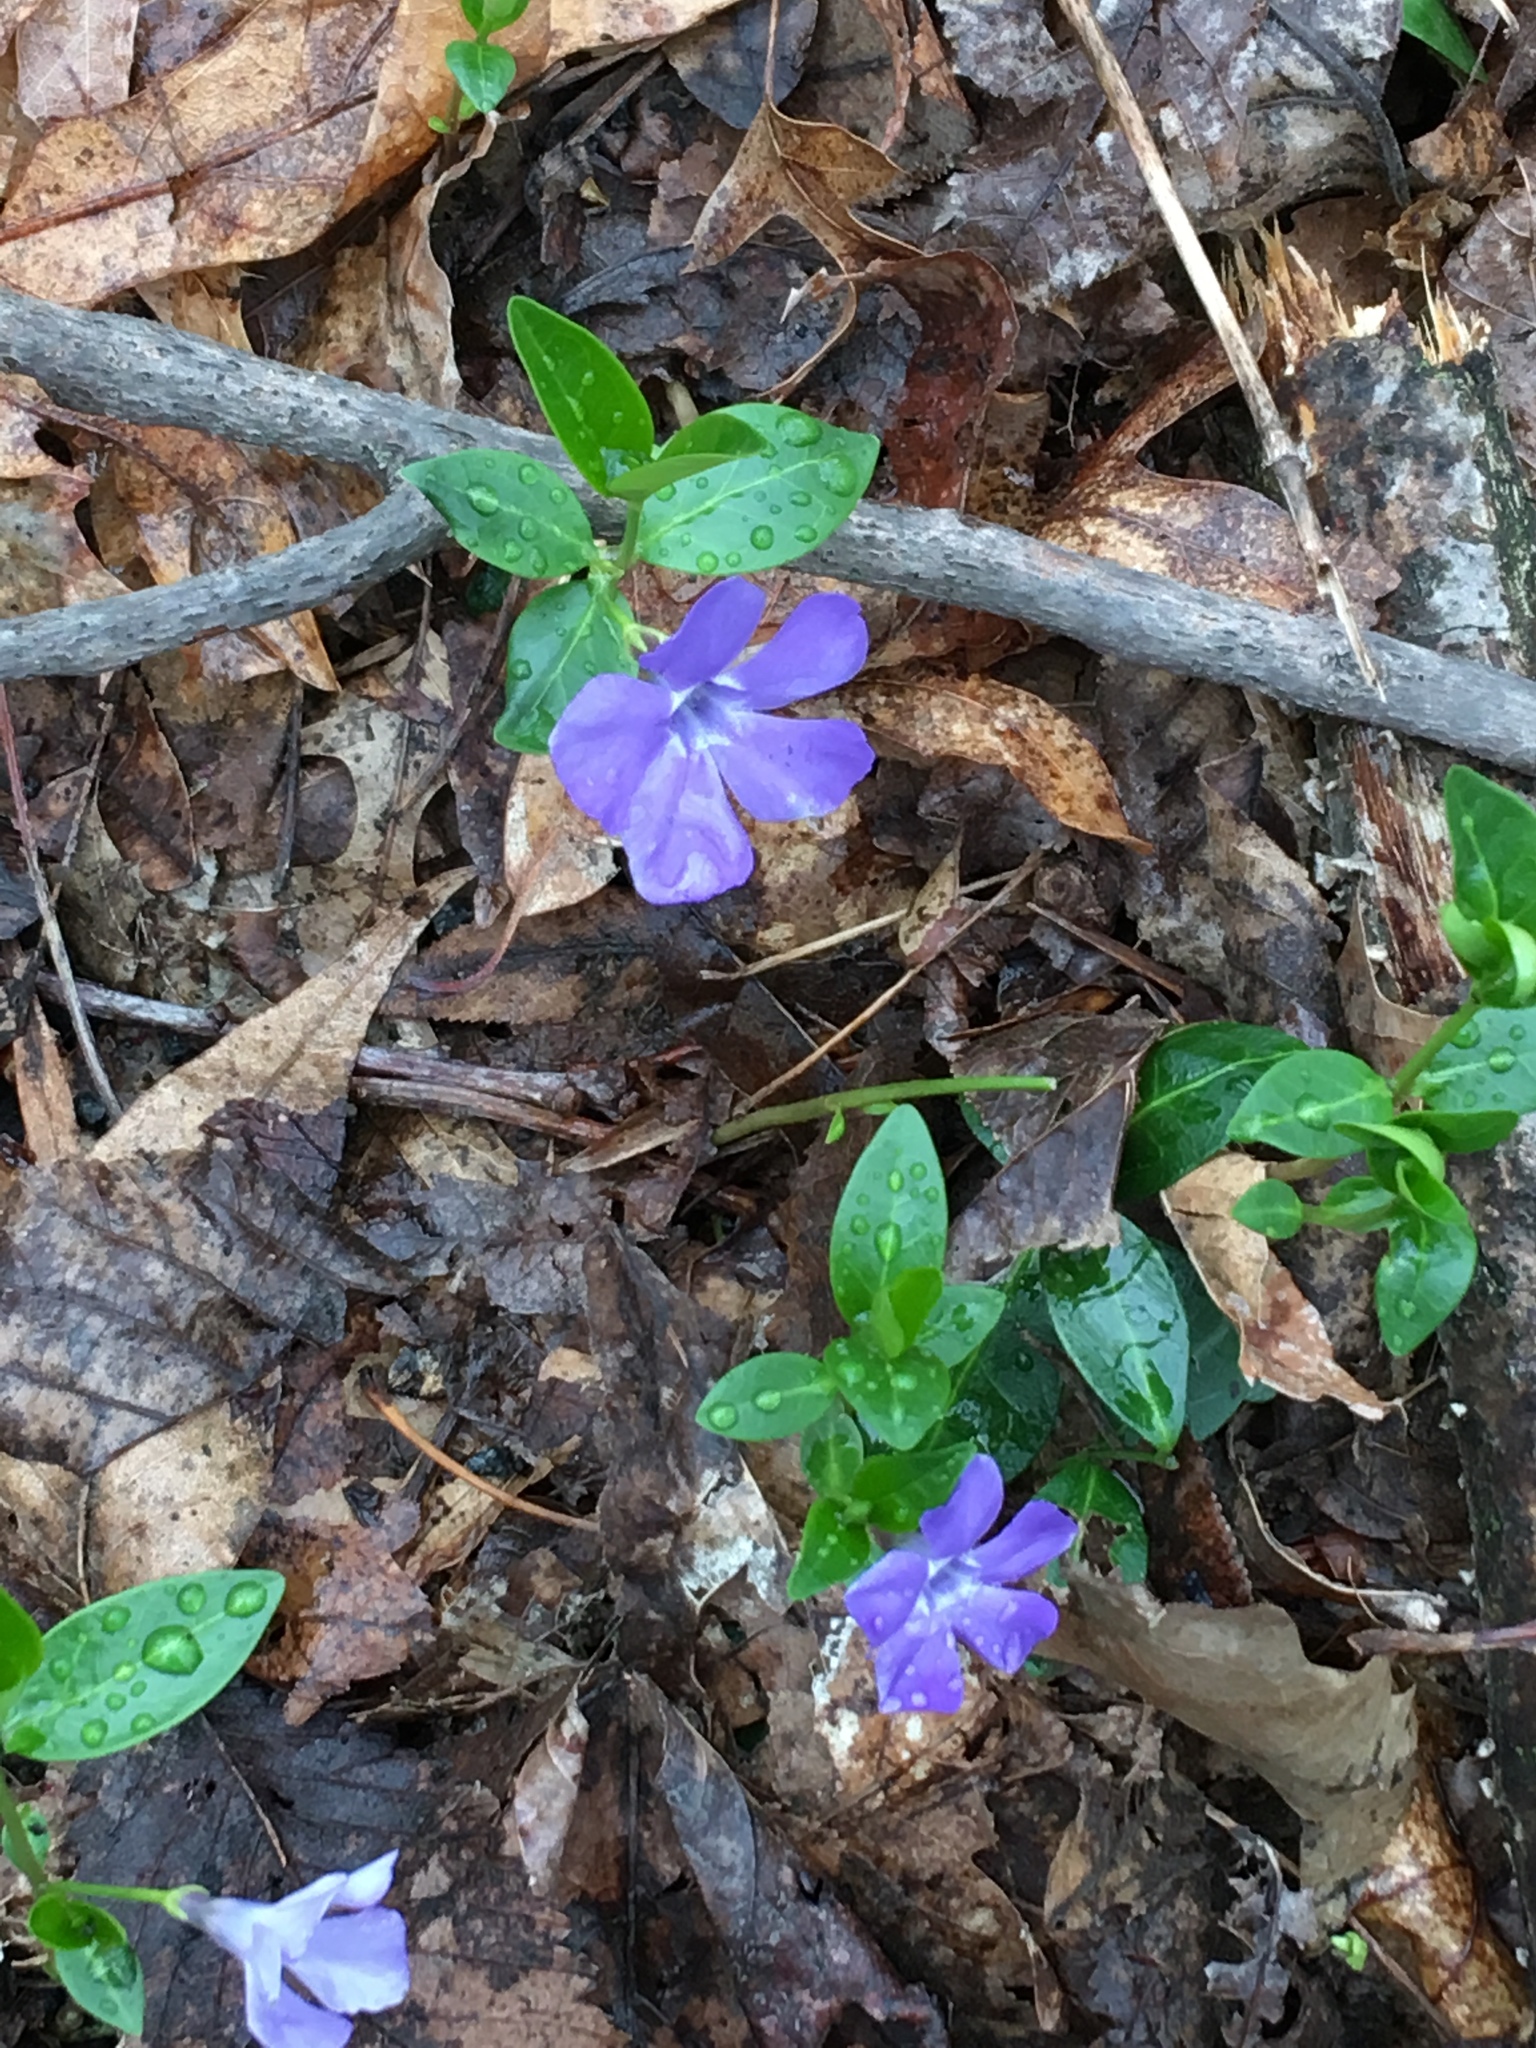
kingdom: Plantae
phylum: Tracheophyta
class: Magnoliopsida
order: Gentianales
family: Apocynaceae
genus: Vinca
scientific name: Vinca minor
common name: Lesser periwinkle
